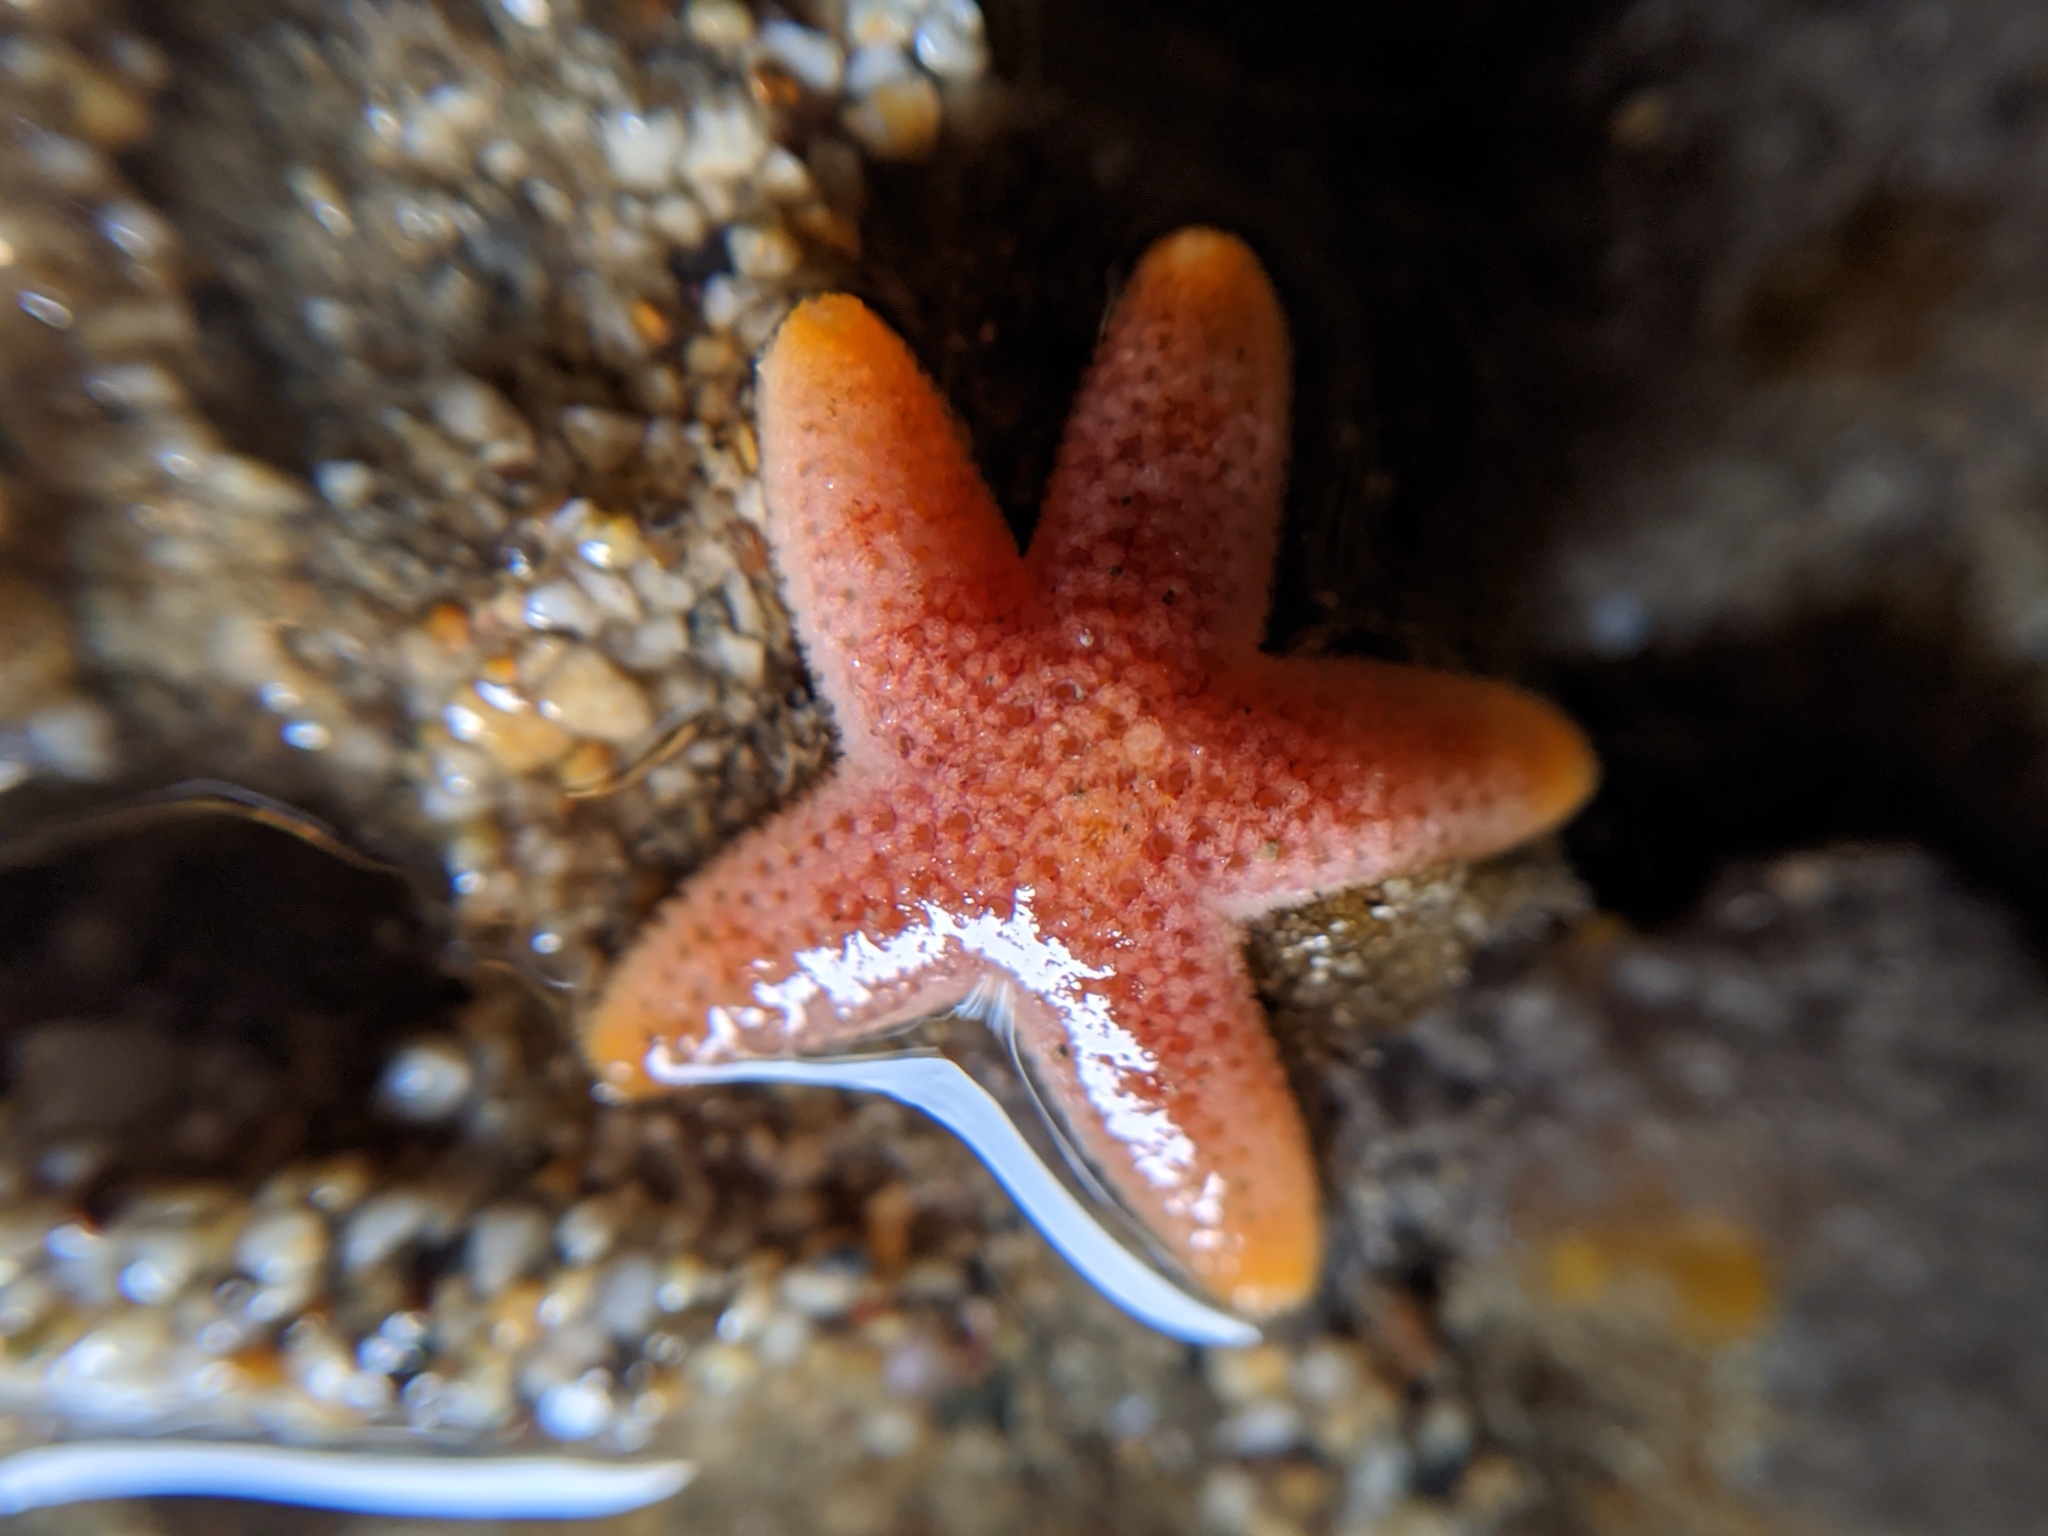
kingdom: Animalia
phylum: Echinodermata
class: Asteroidea
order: Spinulosida
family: Echinasteridae
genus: Henricia
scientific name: Henricia pumila
